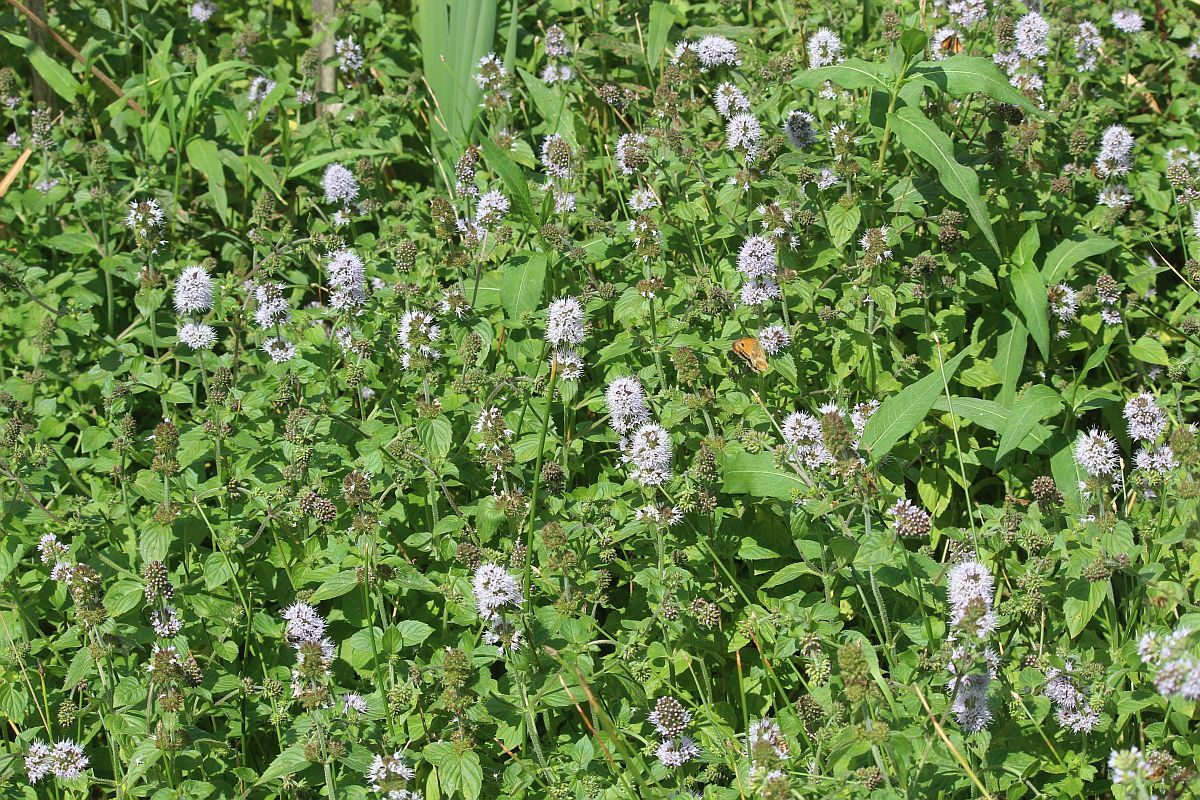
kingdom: Plantae
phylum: Tracheophyta
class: Magnoliopsida
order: Lamiales
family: Lamiaceae
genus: Mentha
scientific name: Mentha aquatica
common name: Water mint
